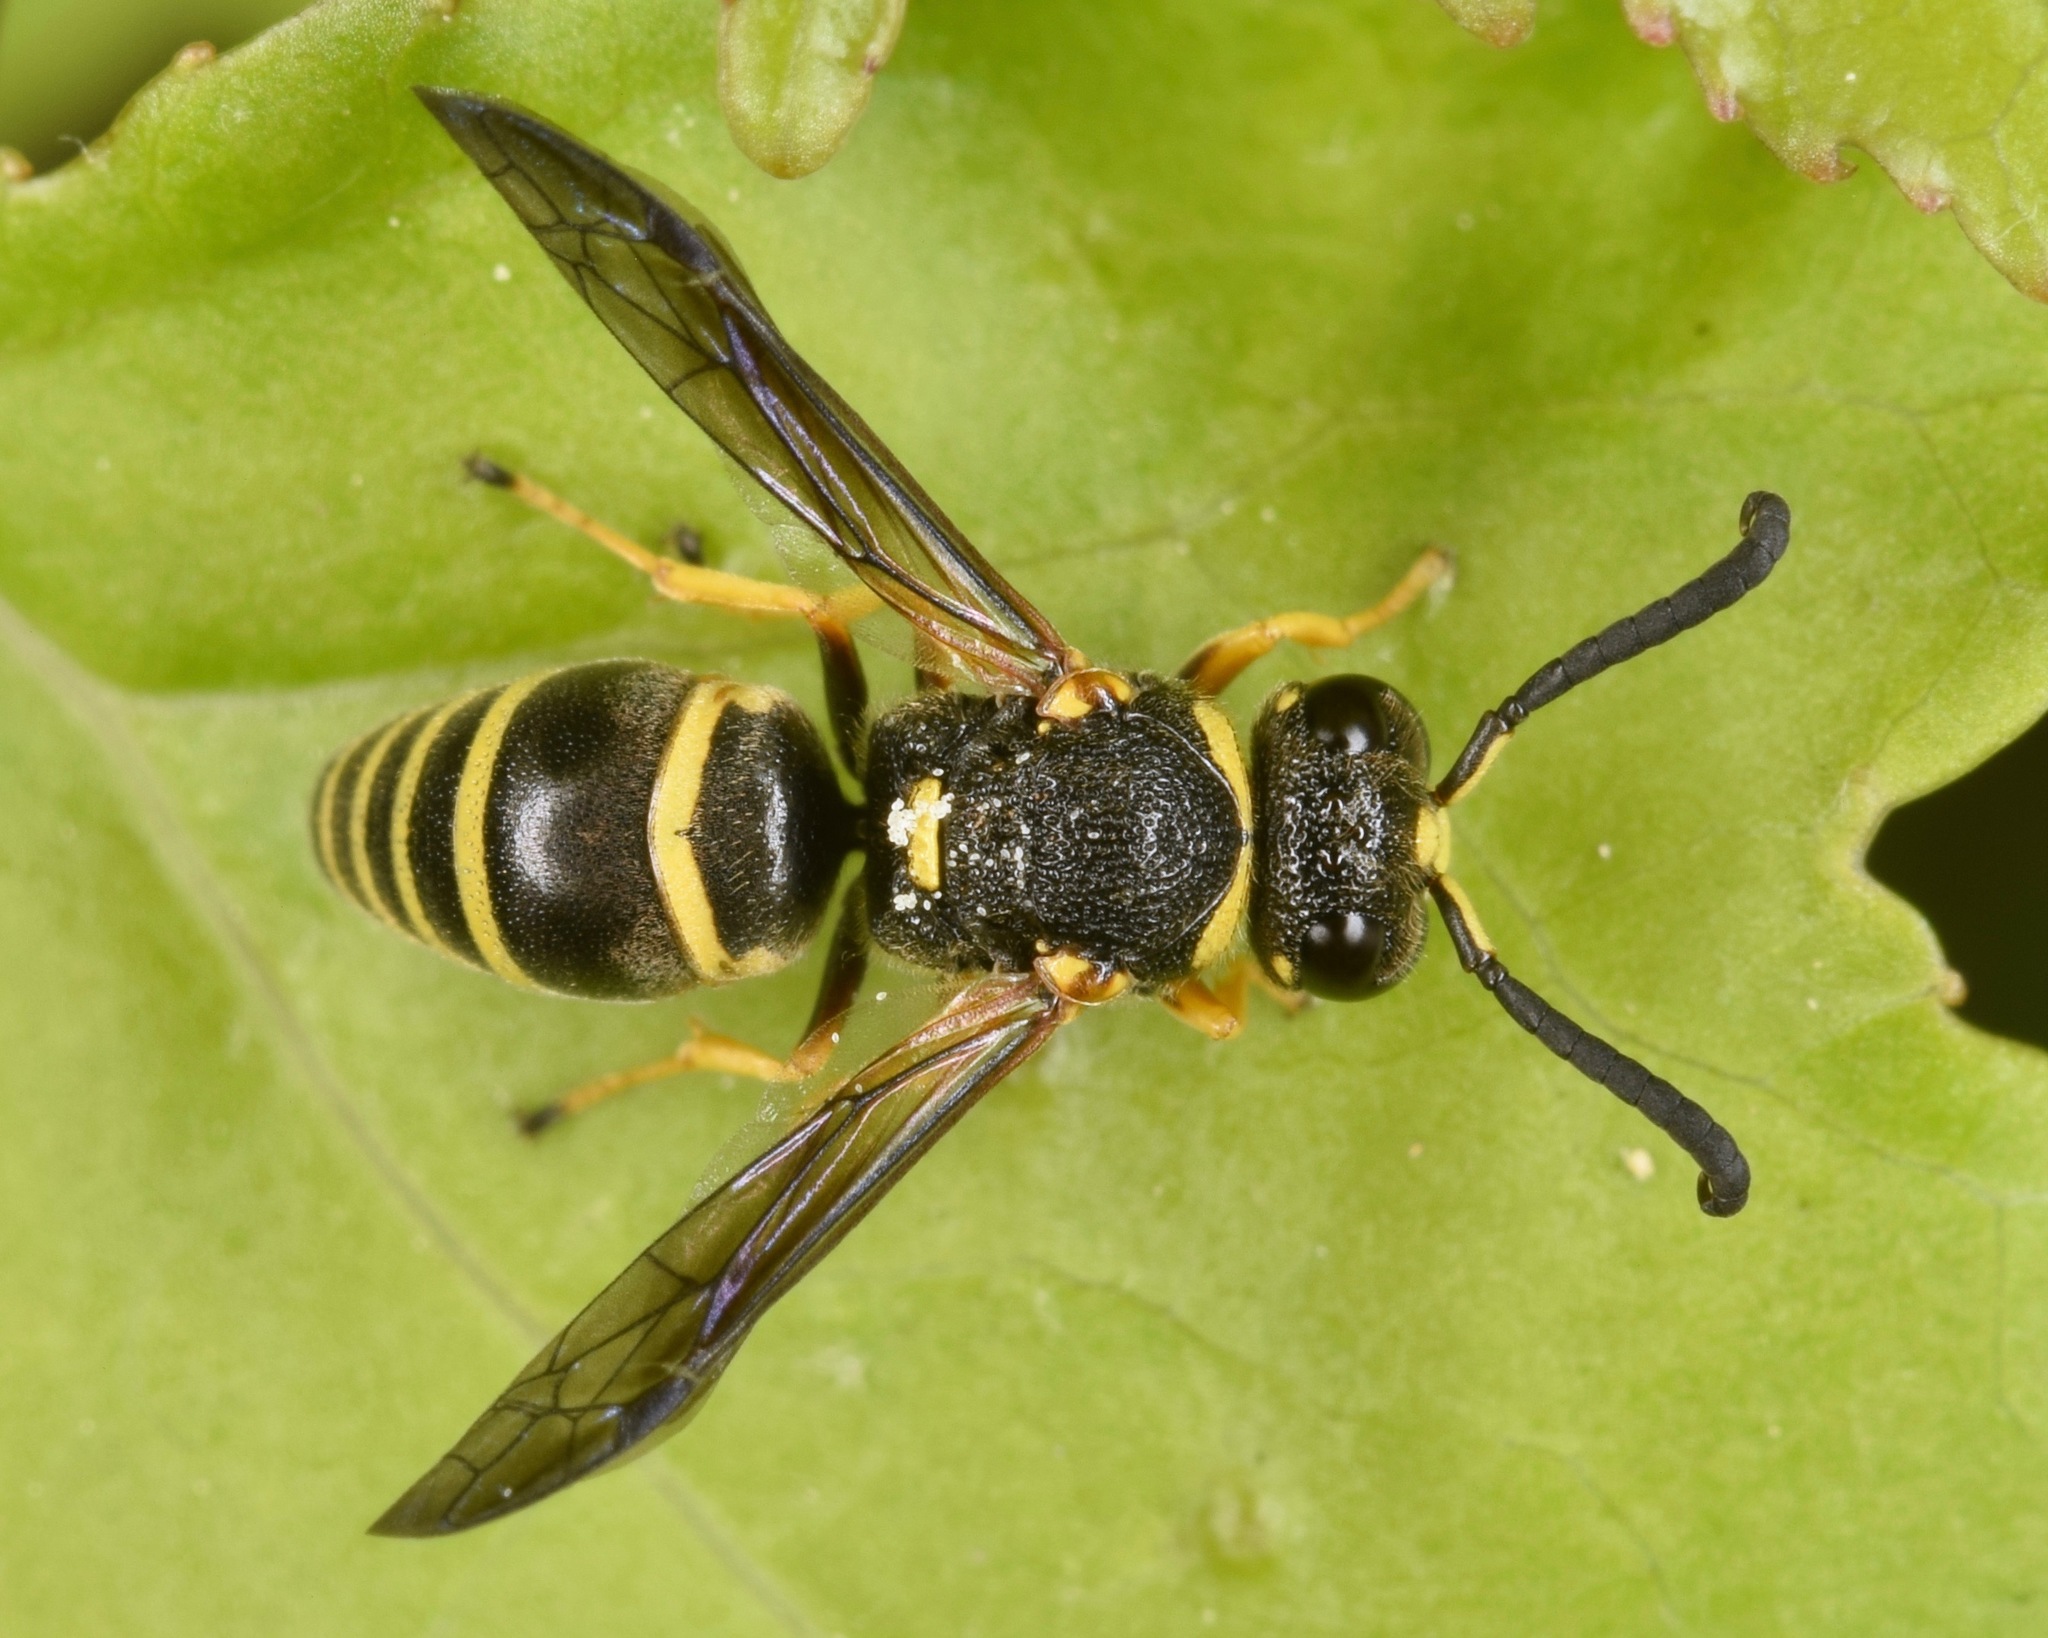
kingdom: Animalia
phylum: Arthropoda
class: Insecta
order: Hymenoptera
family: Eumenidae
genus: Euodynerus
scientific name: Euodynerus
